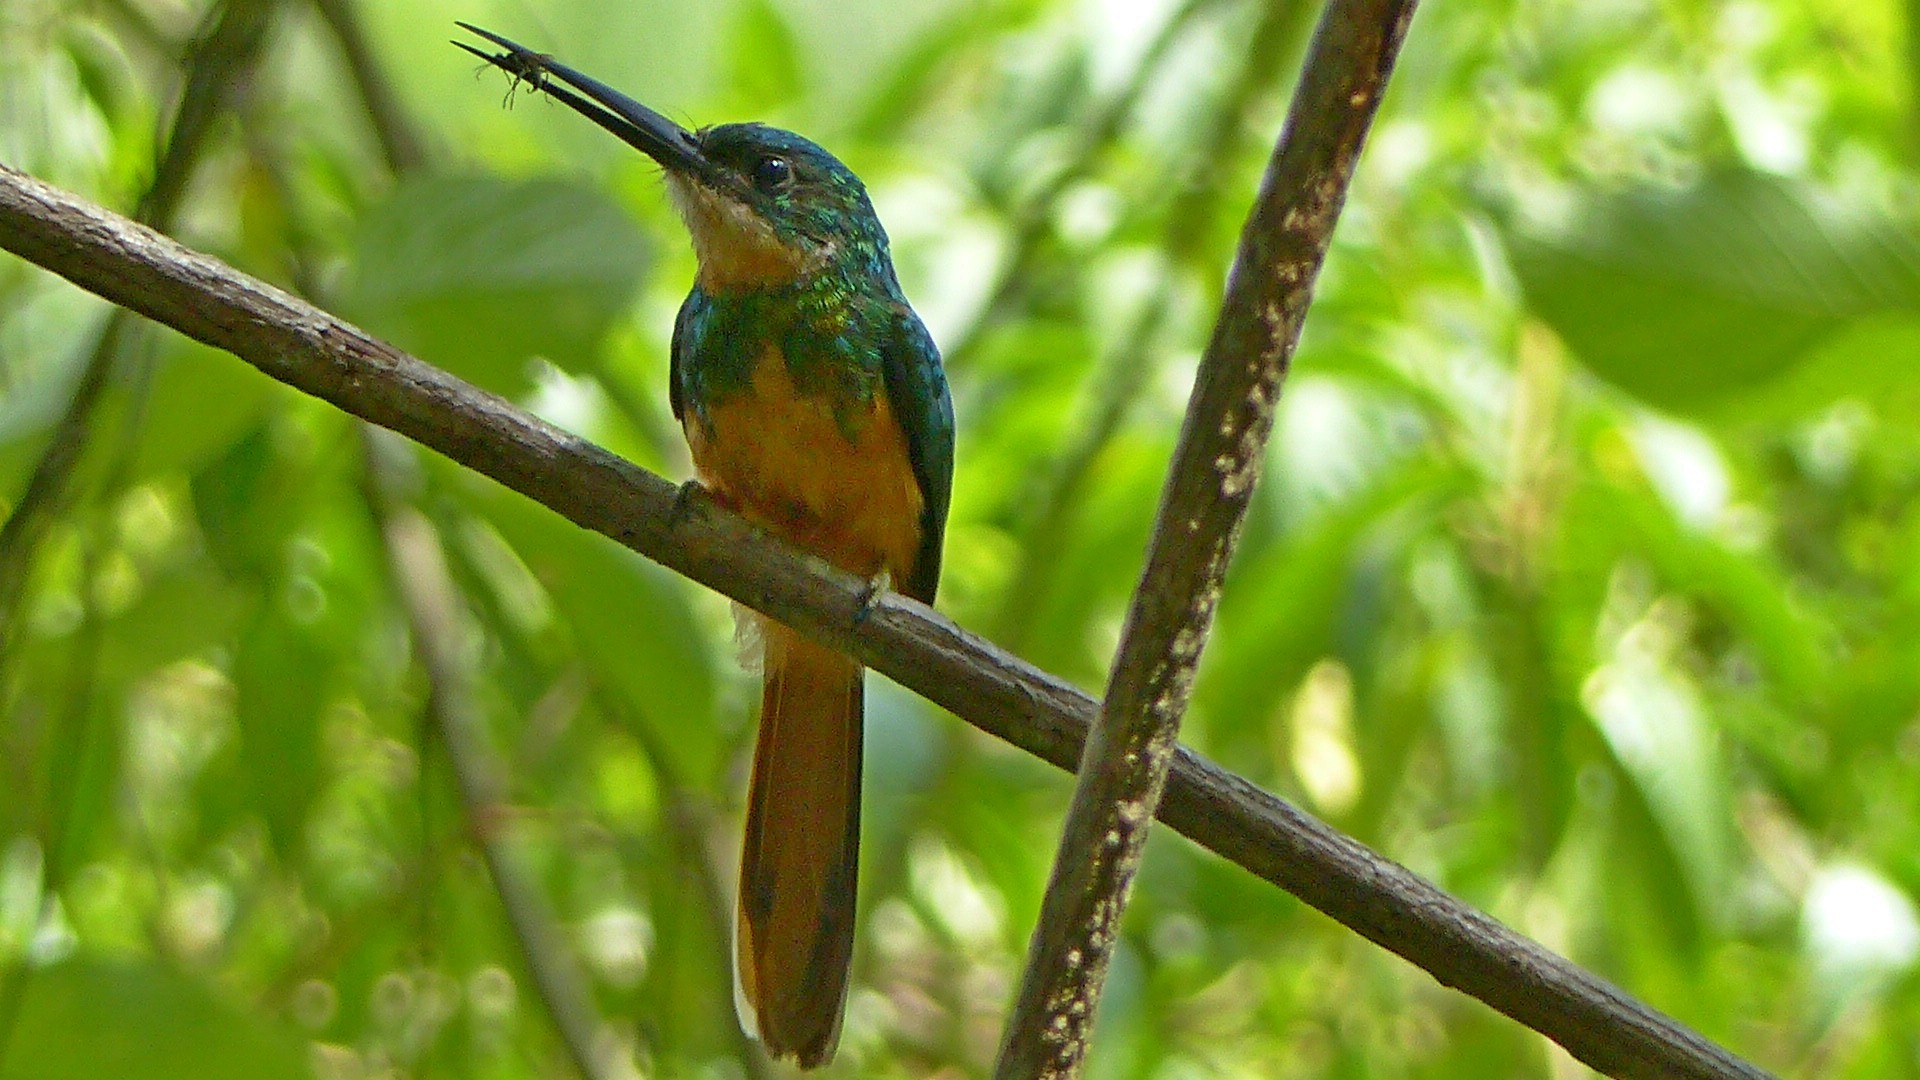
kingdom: Animalia
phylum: Chordata
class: Aves
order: Piciformes
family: Galbulidae
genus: Galbula
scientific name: Galbula ruficauda
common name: Rufous-tailed jacamar
